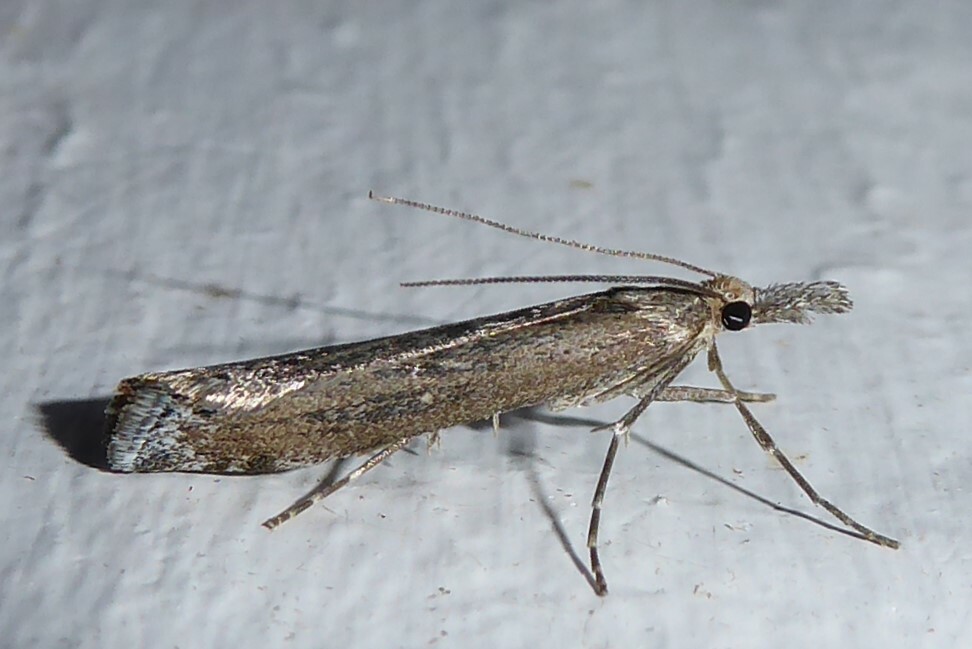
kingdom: Animalia
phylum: Arthropoda
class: Insecta
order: Lepidoptera
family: Crambidae
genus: Orocrambus
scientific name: Orocrambus cyclopicus
